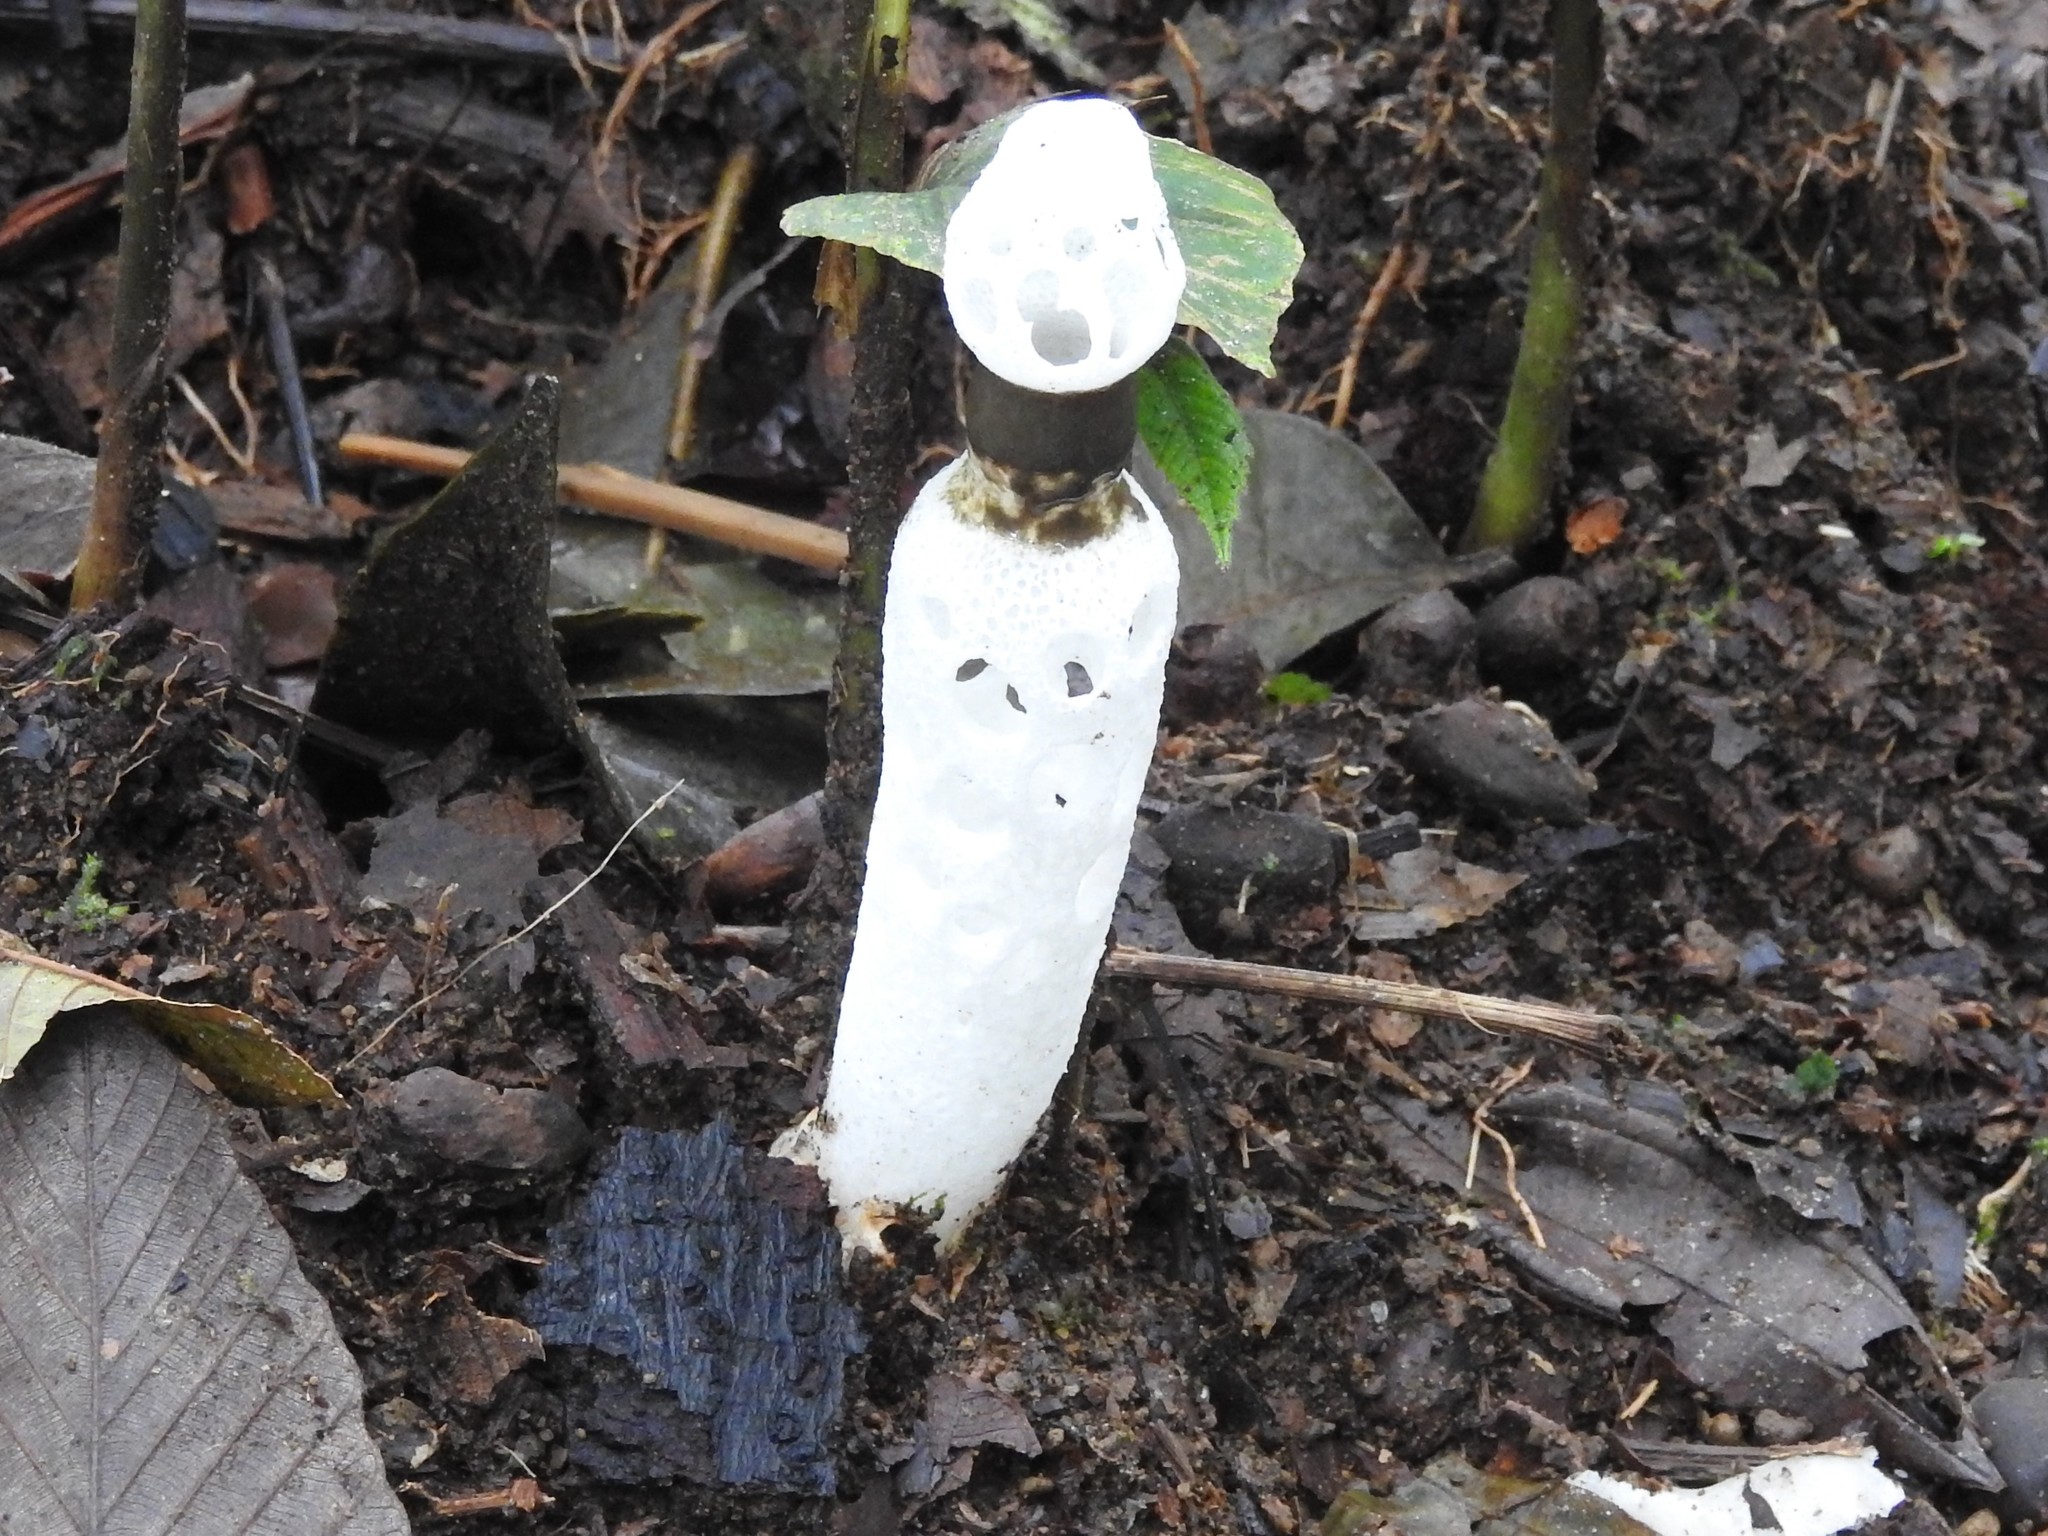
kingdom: Fungi
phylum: Basidiomycota
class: Agaricomycetes
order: Phallales
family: Phallaceae
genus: Staheliomyces
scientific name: Staheliomyces cinctus
